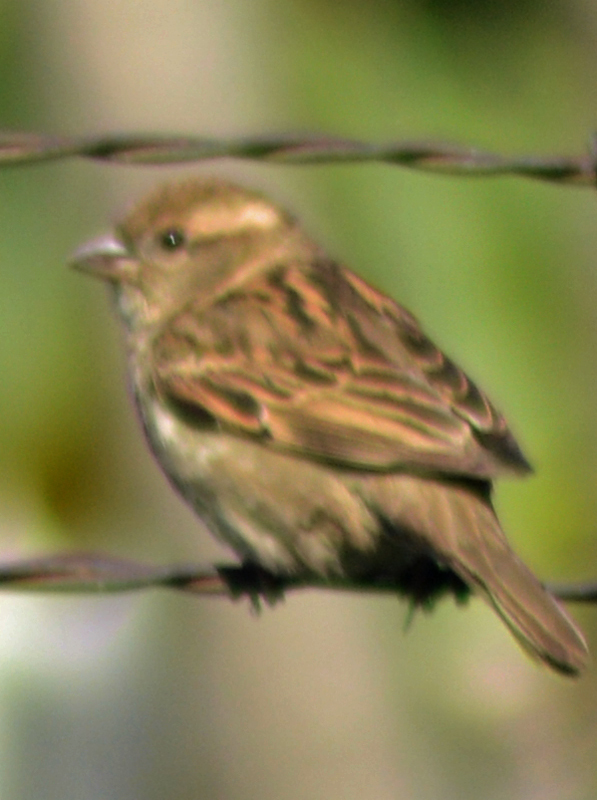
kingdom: Animalia
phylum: Chordata
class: Aves
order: Passeriformes
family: Passeridae
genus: Passer
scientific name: Passer domesticus
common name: House sparrow
